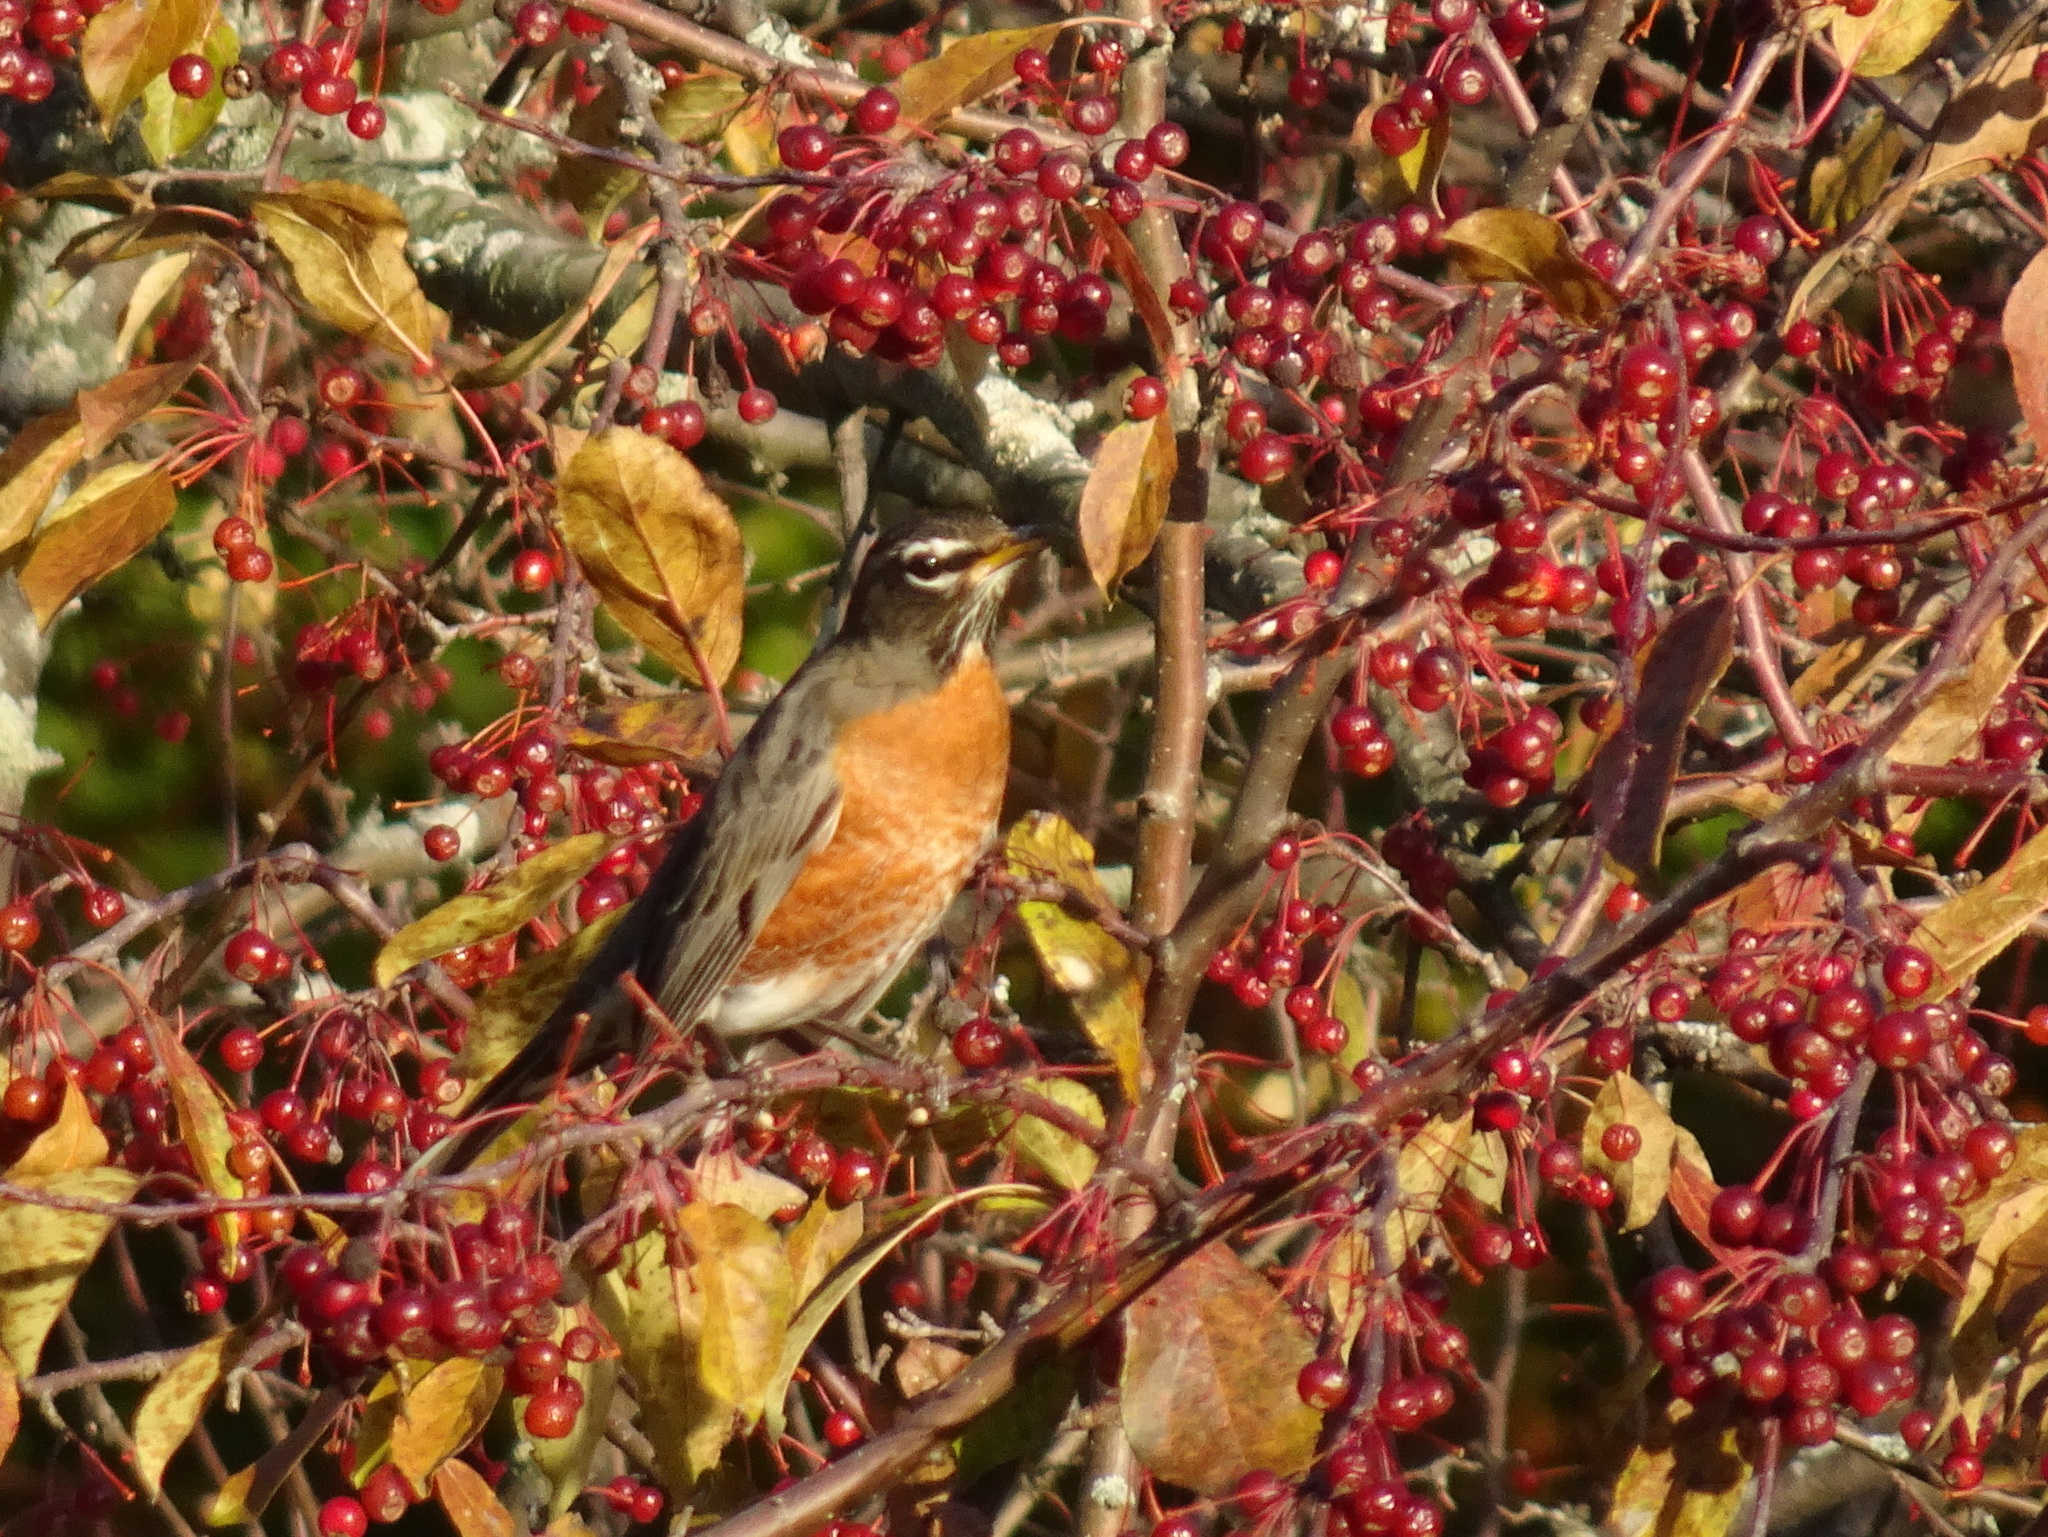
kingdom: Animalia
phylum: Chordata
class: Aves
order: Passeriformes
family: Turdidae
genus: Turdus
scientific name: Turdus migratorius
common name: American robin
